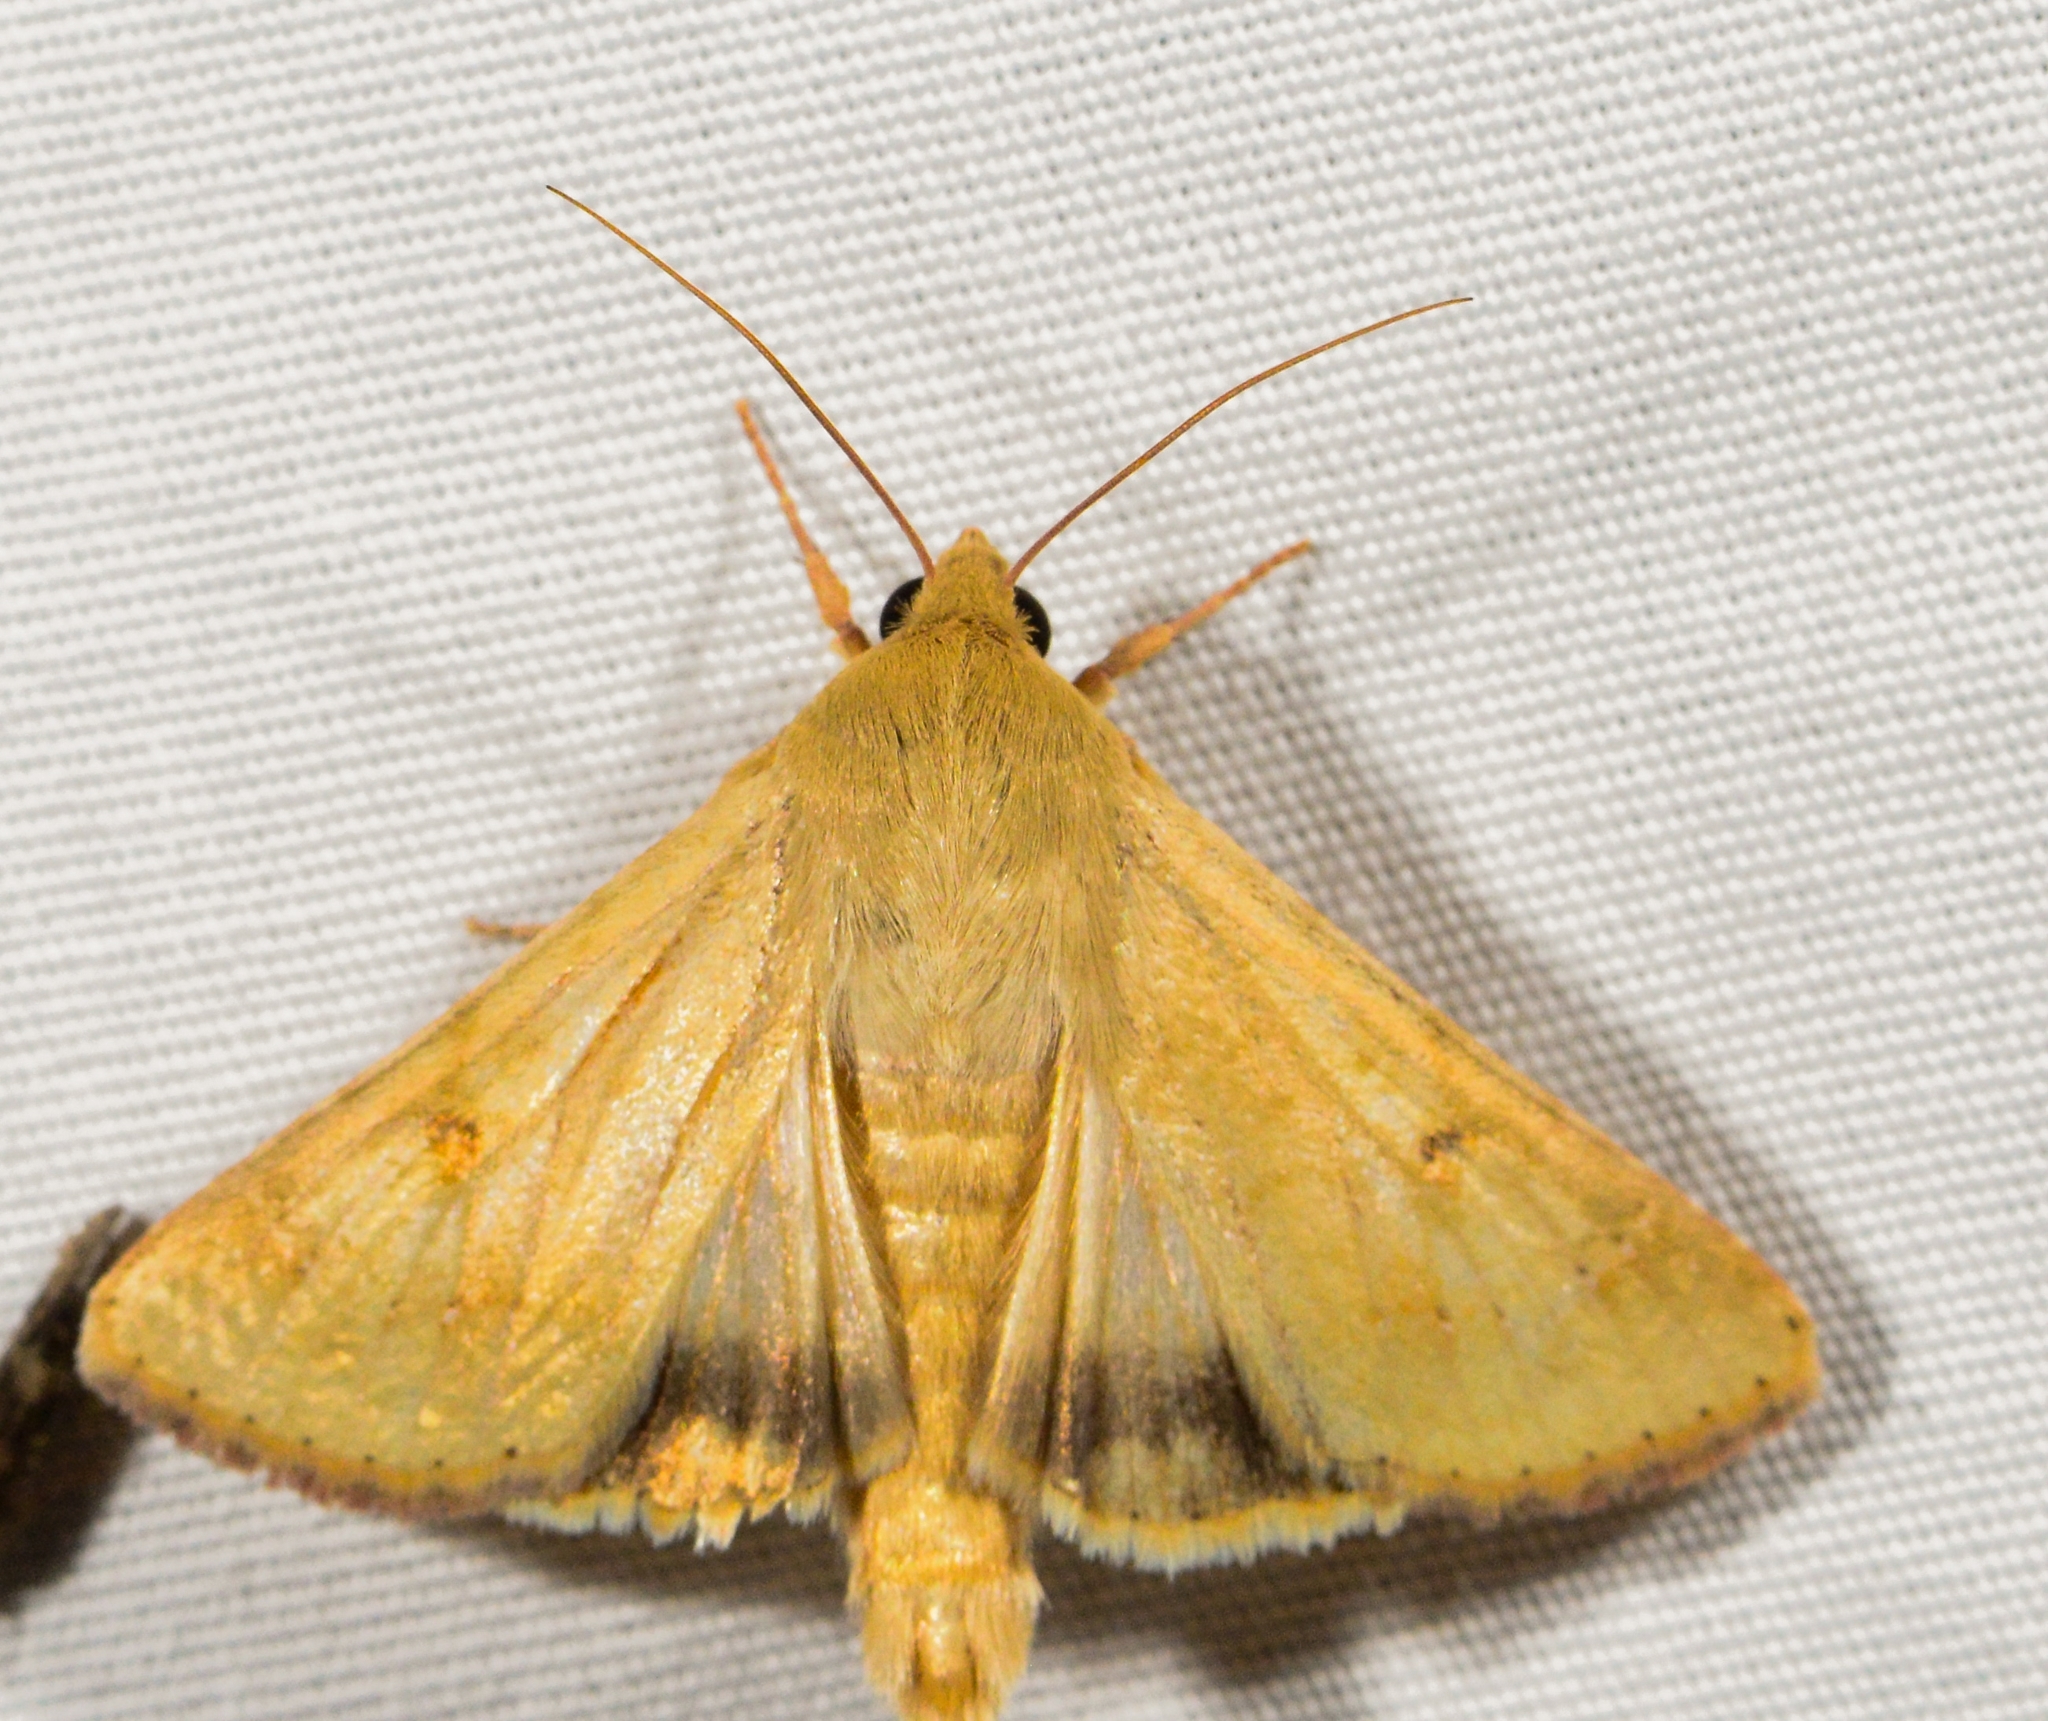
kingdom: Animalia
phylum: Arthropoda
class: Insecta
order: Lepidoptera
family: Noctuidae
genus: Helicoverpa
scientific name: Helicoverpa zea
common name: Bollworm
